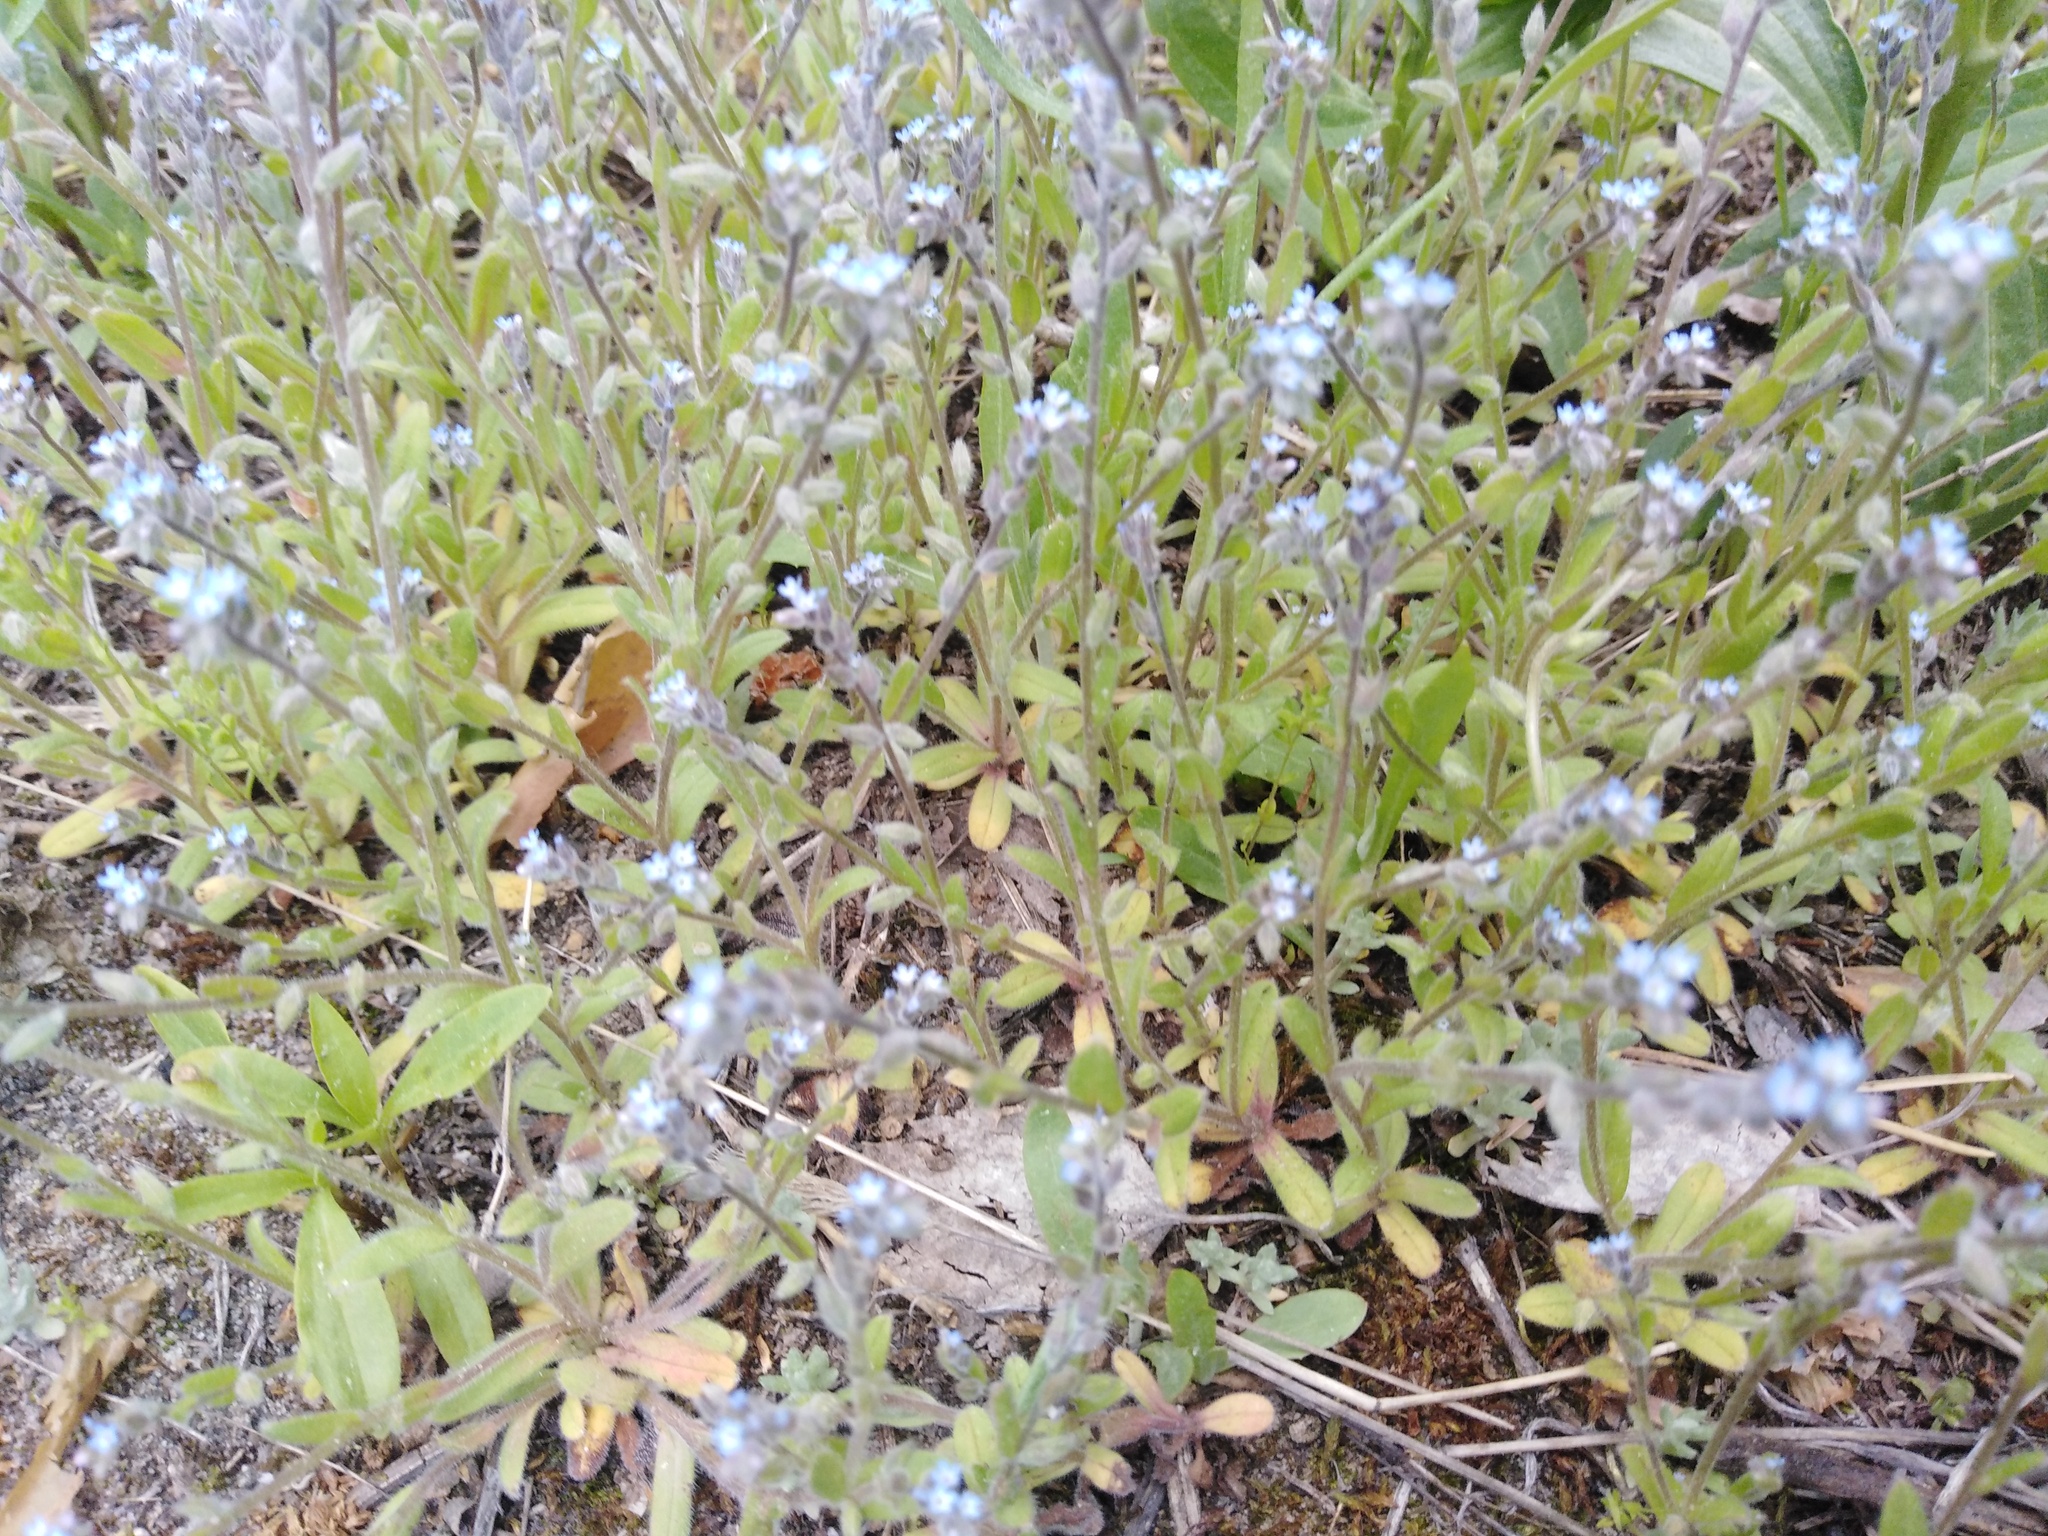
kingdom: Plantae
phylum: Tracheophyta
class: Magnoliopsida
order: Boraginales
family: Boraginaceae
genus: Myosotis
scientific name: Myosotis stricta
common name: Strict forget-me-not
